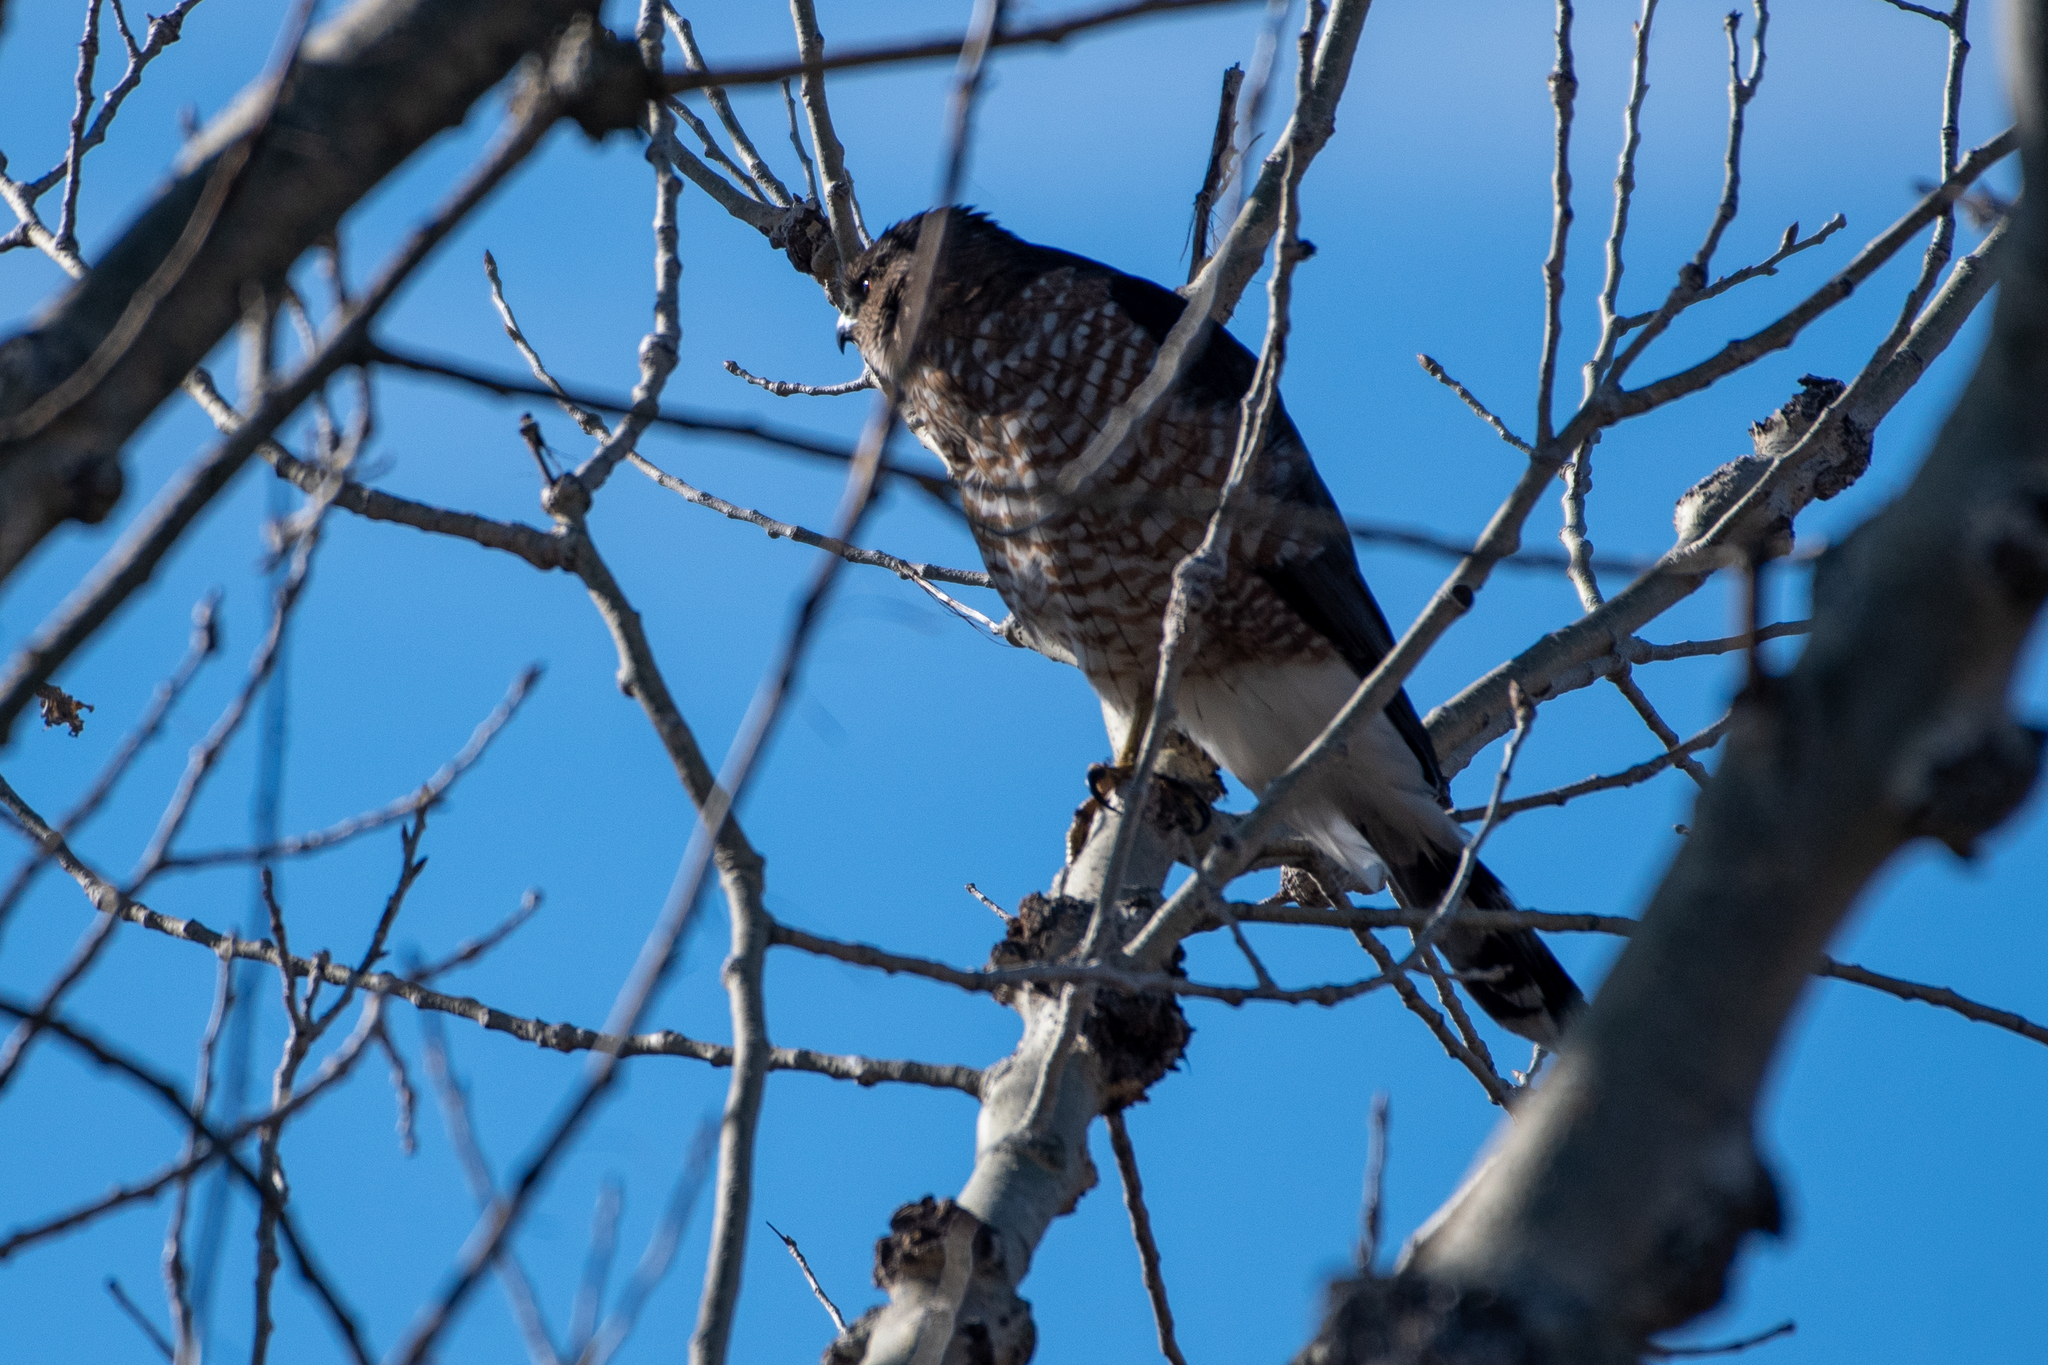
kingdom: Animalia
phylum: Chordata
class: Aves
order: Accipitriformes
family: Accipitridae
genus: Accipiter
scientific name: Accipiter cooperii
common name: Cooper's hawk
